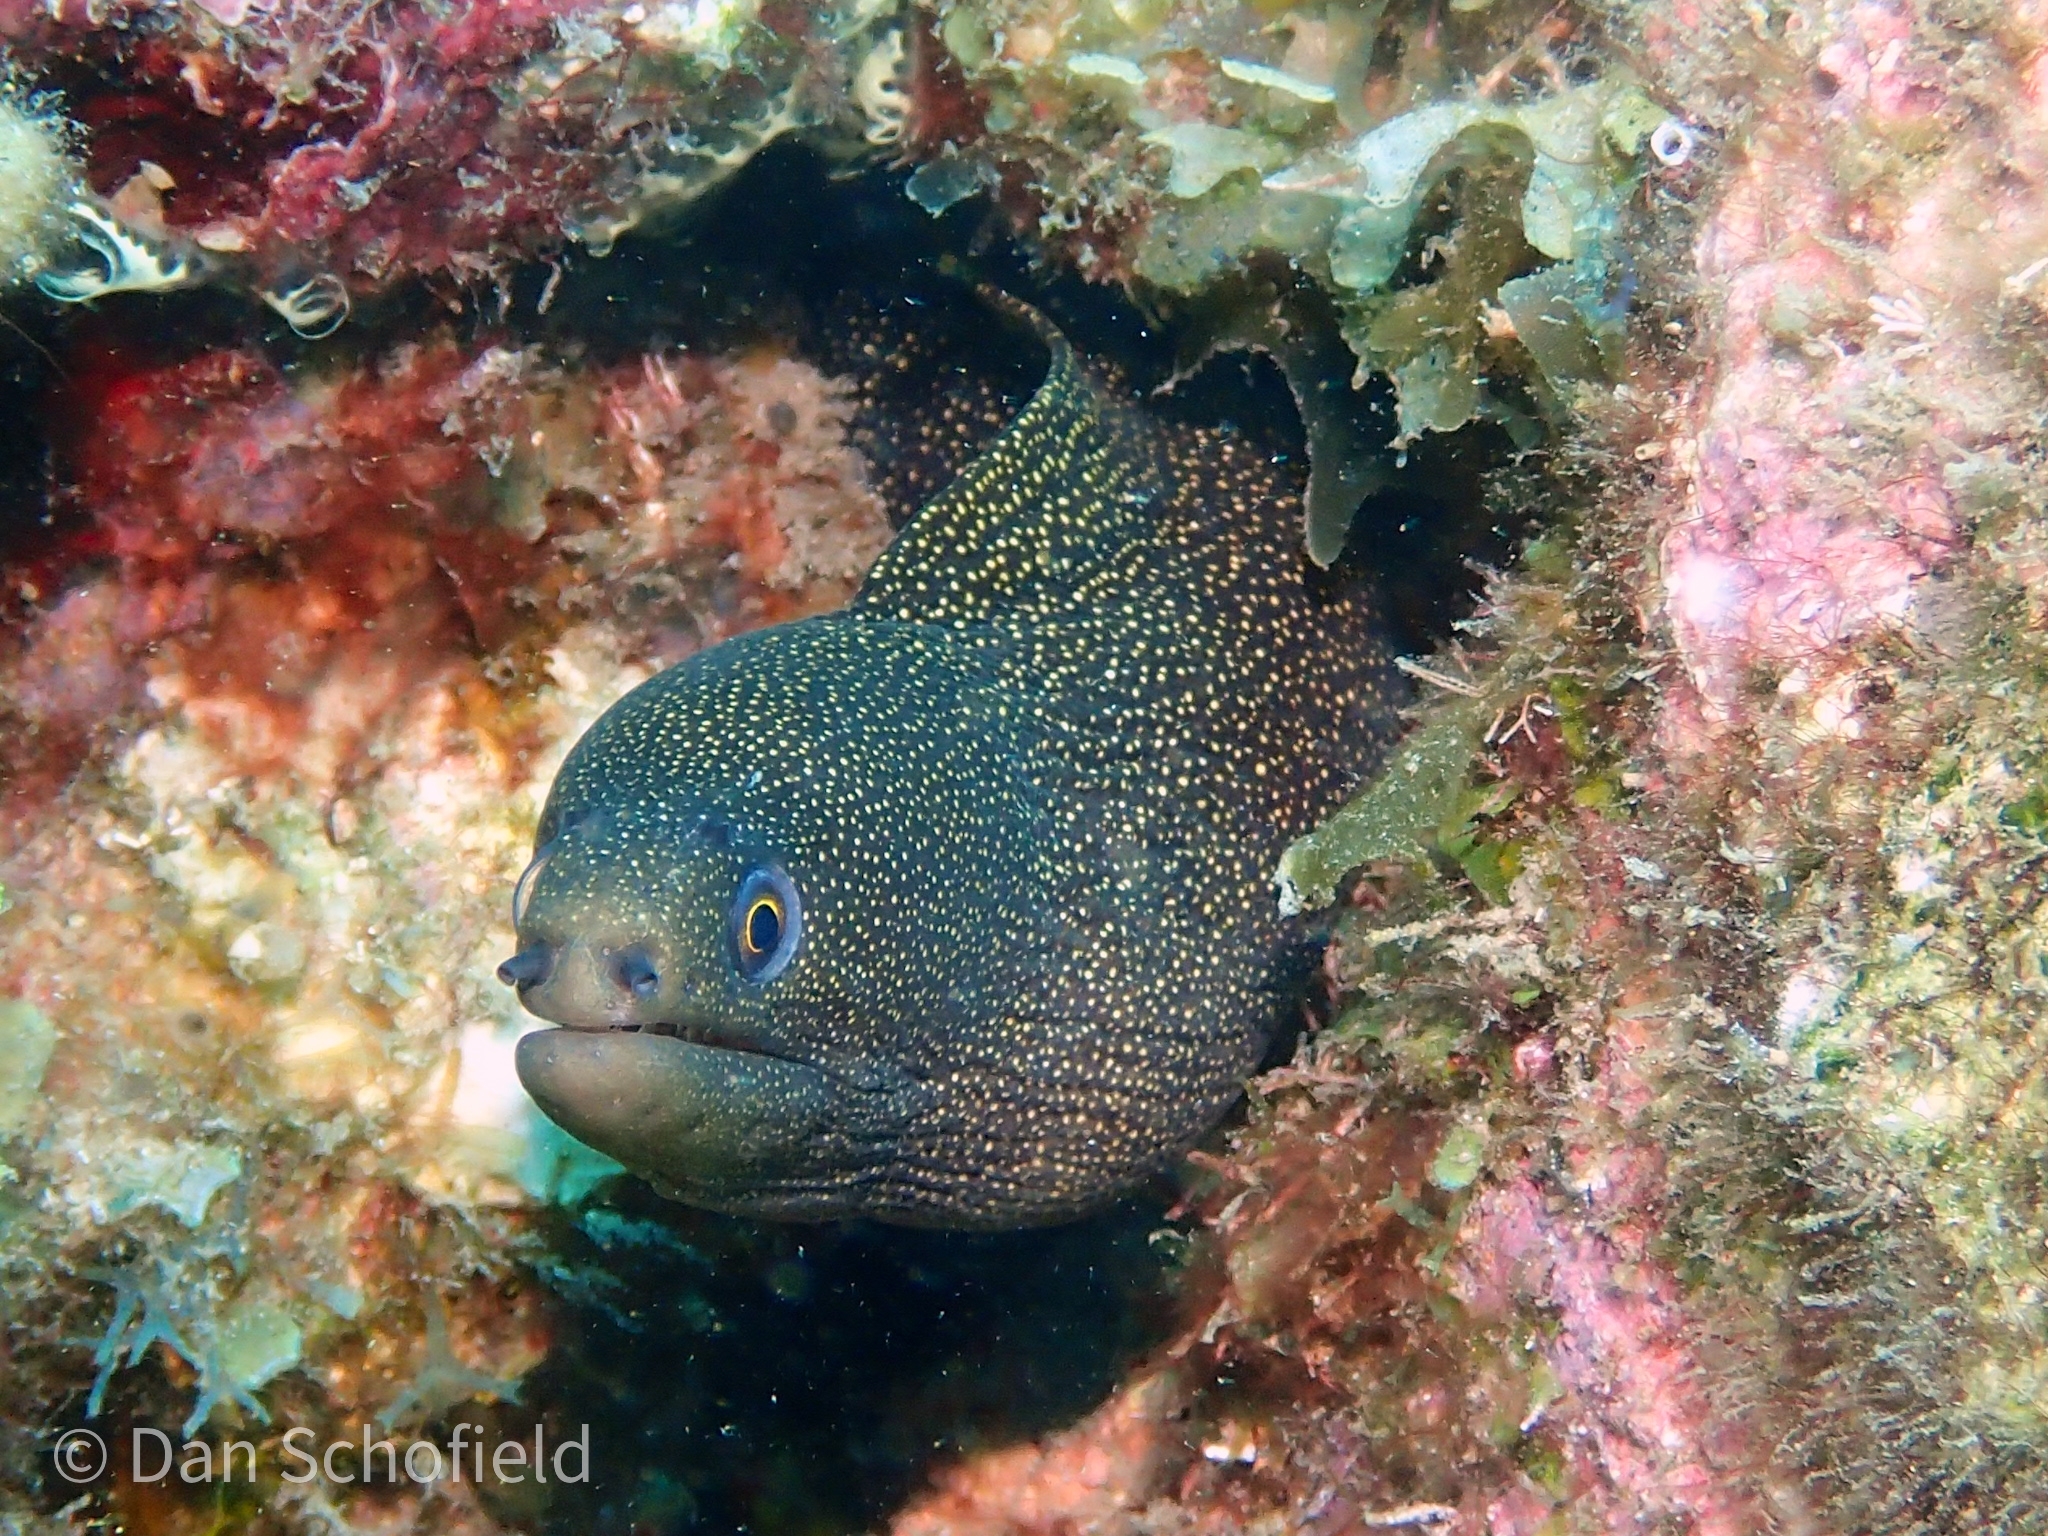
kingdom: Animalia
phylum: Chordata
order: Anguilliformes
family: Muraenidae
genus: Gymnothorax
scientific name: Gymnothorax miliaris
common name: Goldentail moray
